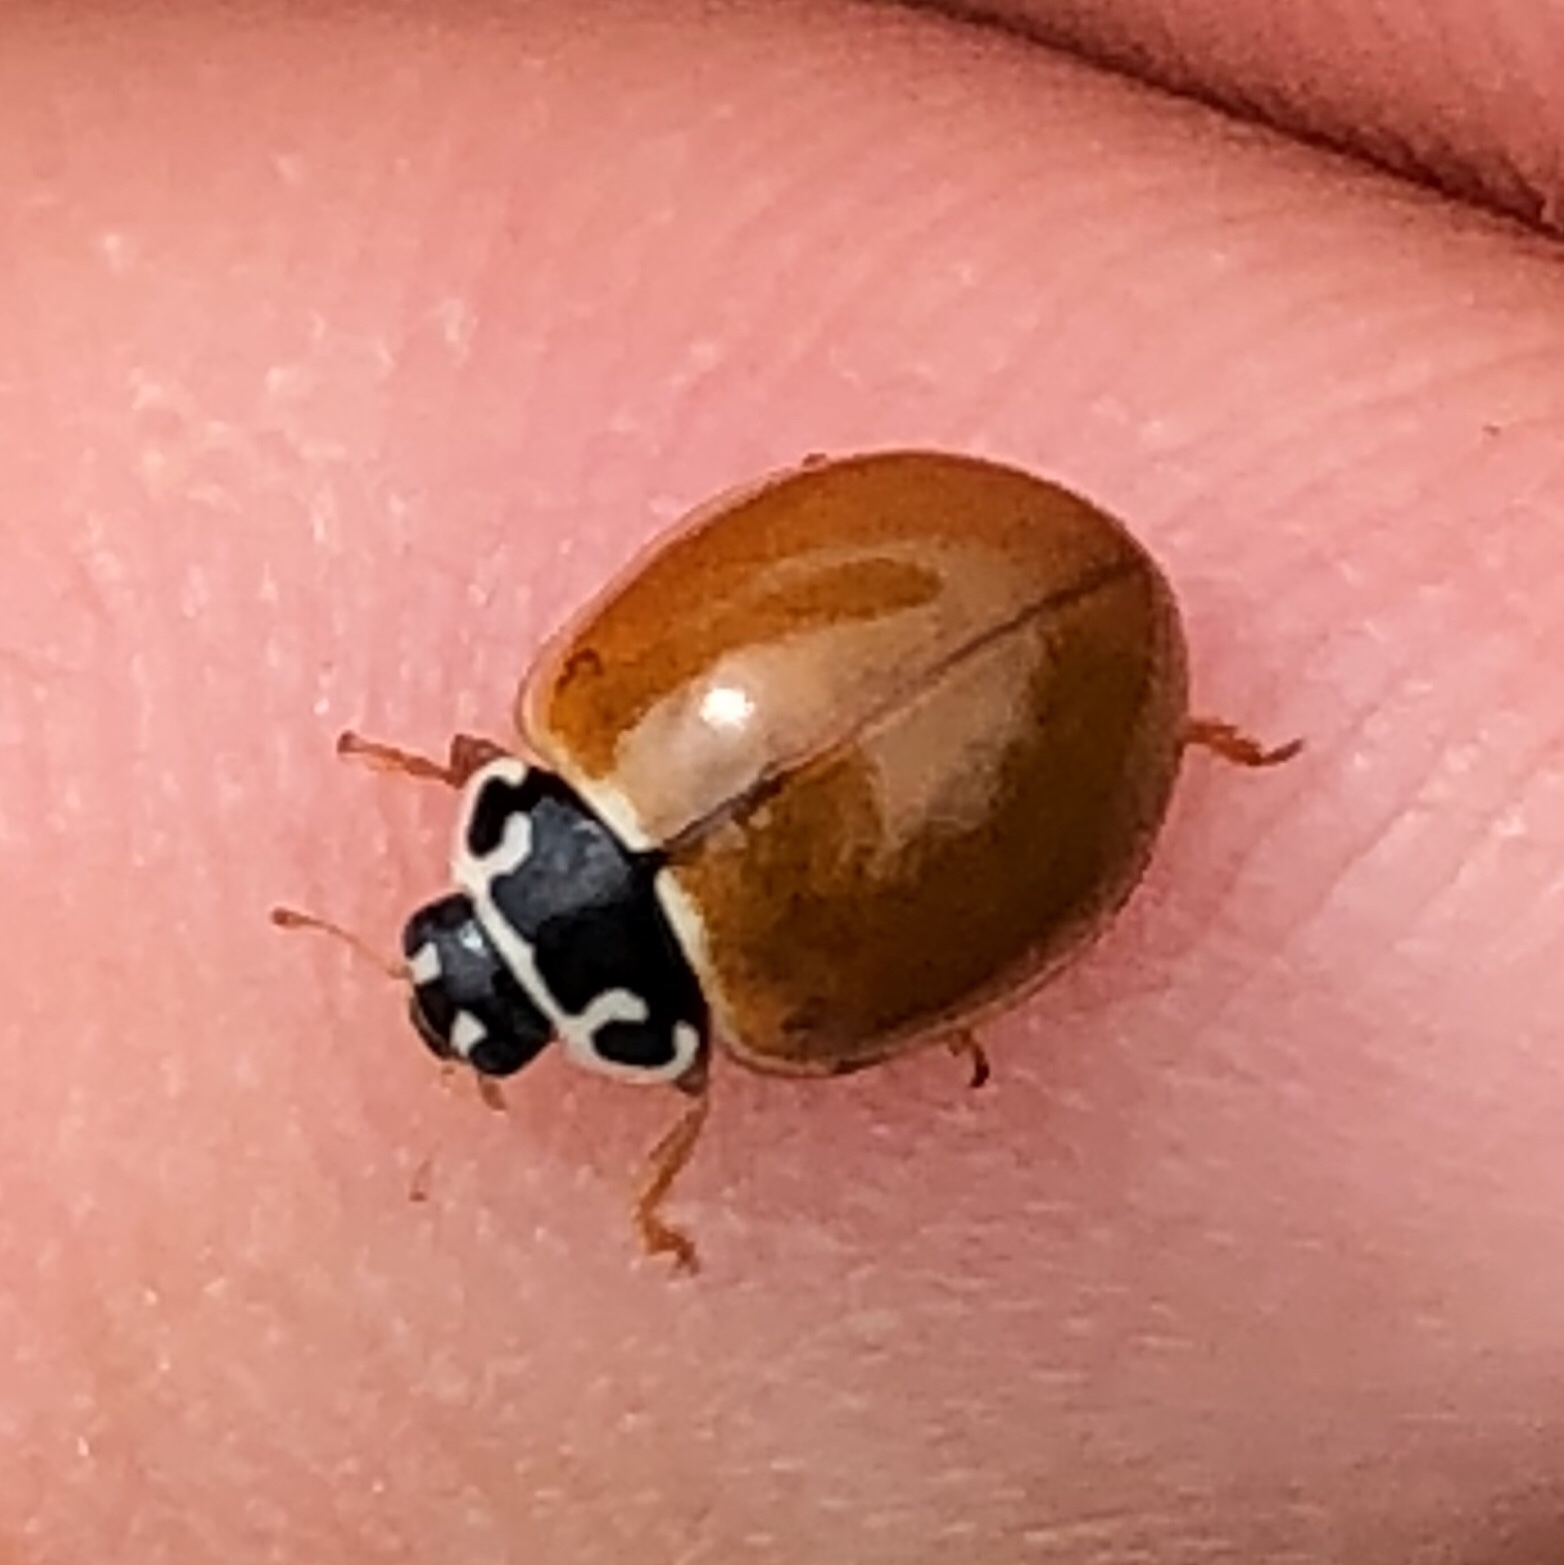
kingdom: Animalia
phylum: Arthropoda
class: Insecta
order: Coleoptera
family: Coccinellidae
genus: Cycloneda
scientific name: Cycloneda munda
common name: Polished lady beetle
